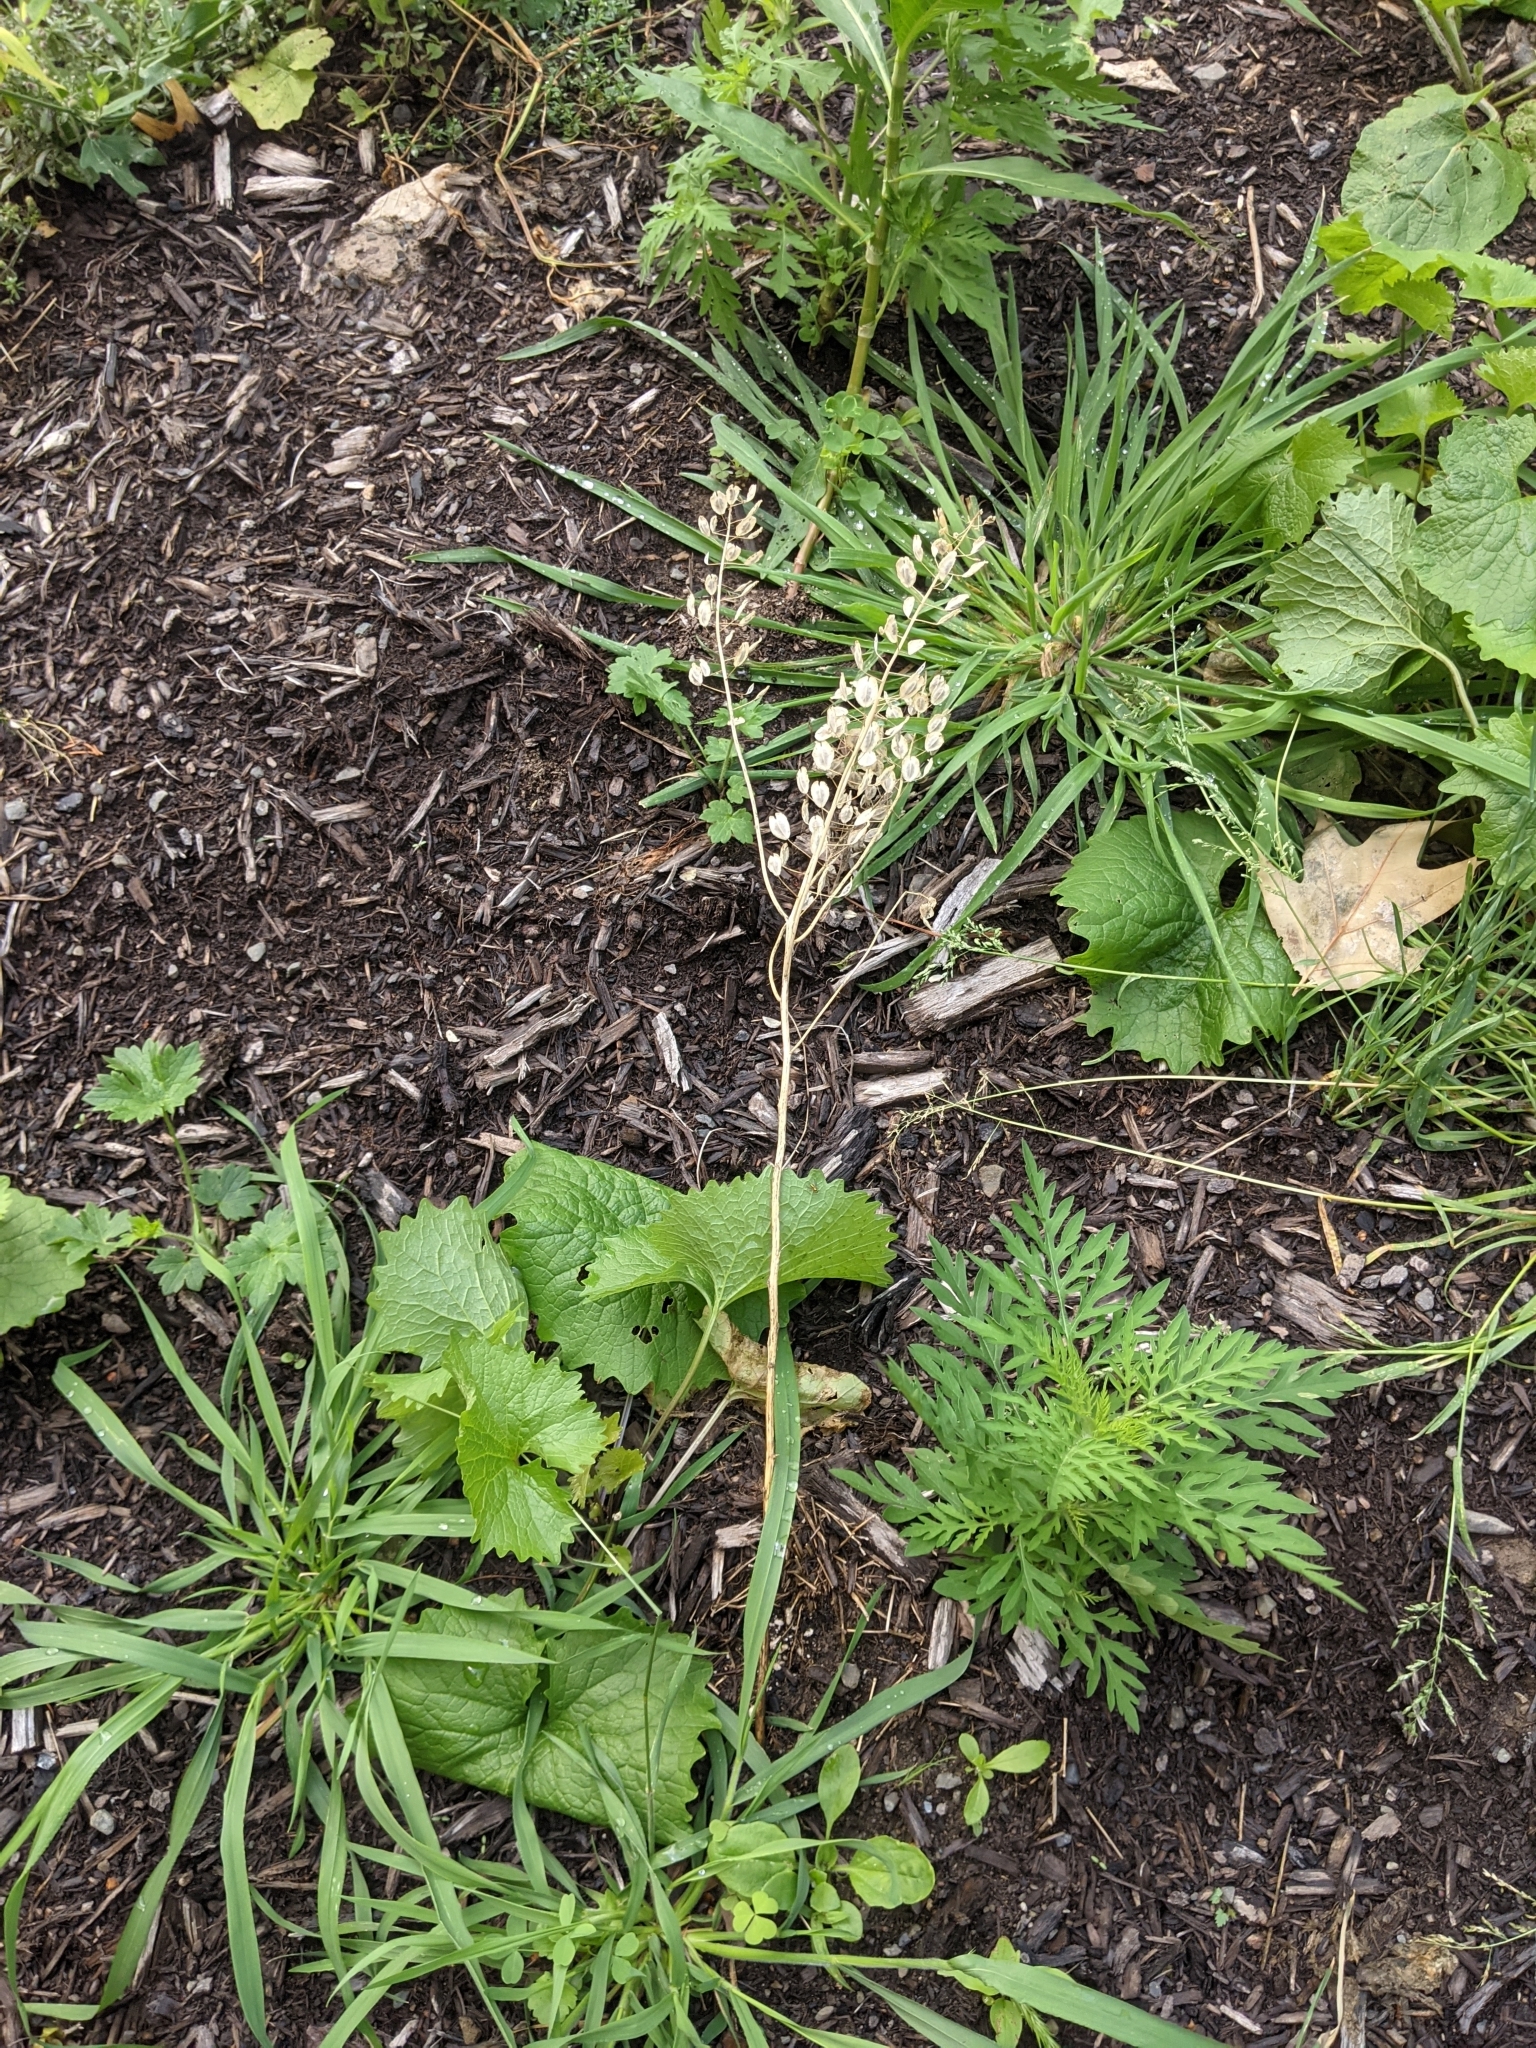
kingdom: Plantae
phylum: Tracheophyta
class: Magnoliopsida
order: Brassicales
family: Brassicaceae
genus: Thlaspi
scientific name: Thlaspi arvense
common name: Field pennycress
